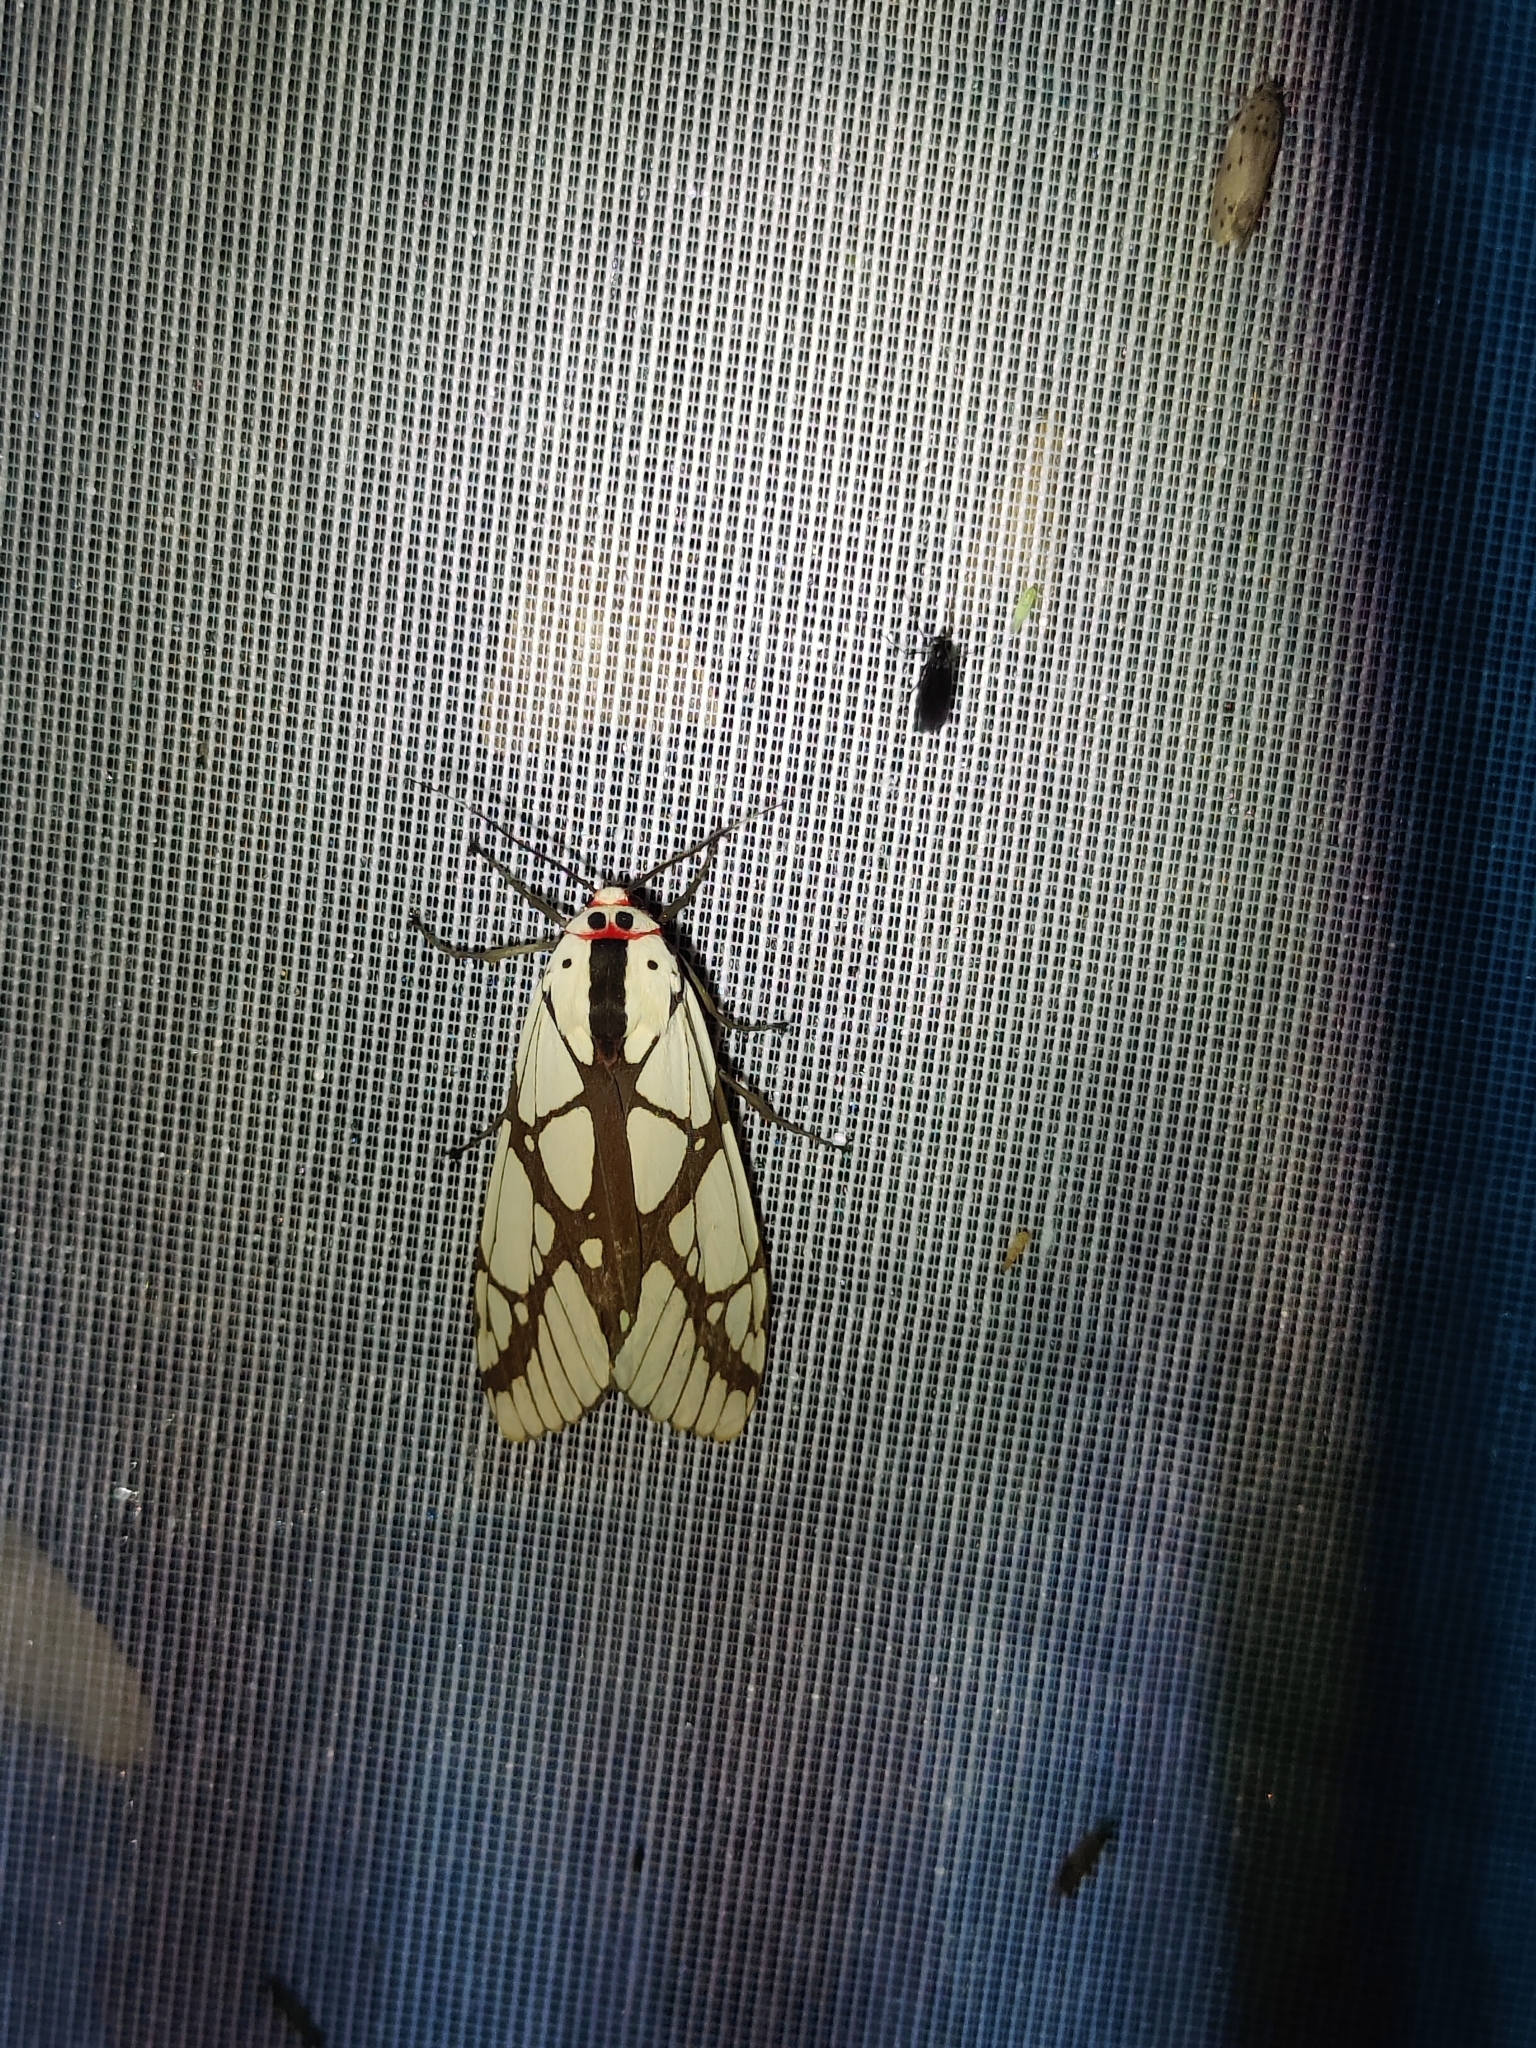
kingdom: Animalia
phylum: Arthropoda
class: Insecta
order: Lepidoptera
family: Erebidae
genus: Areas
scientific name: Areas galactina
